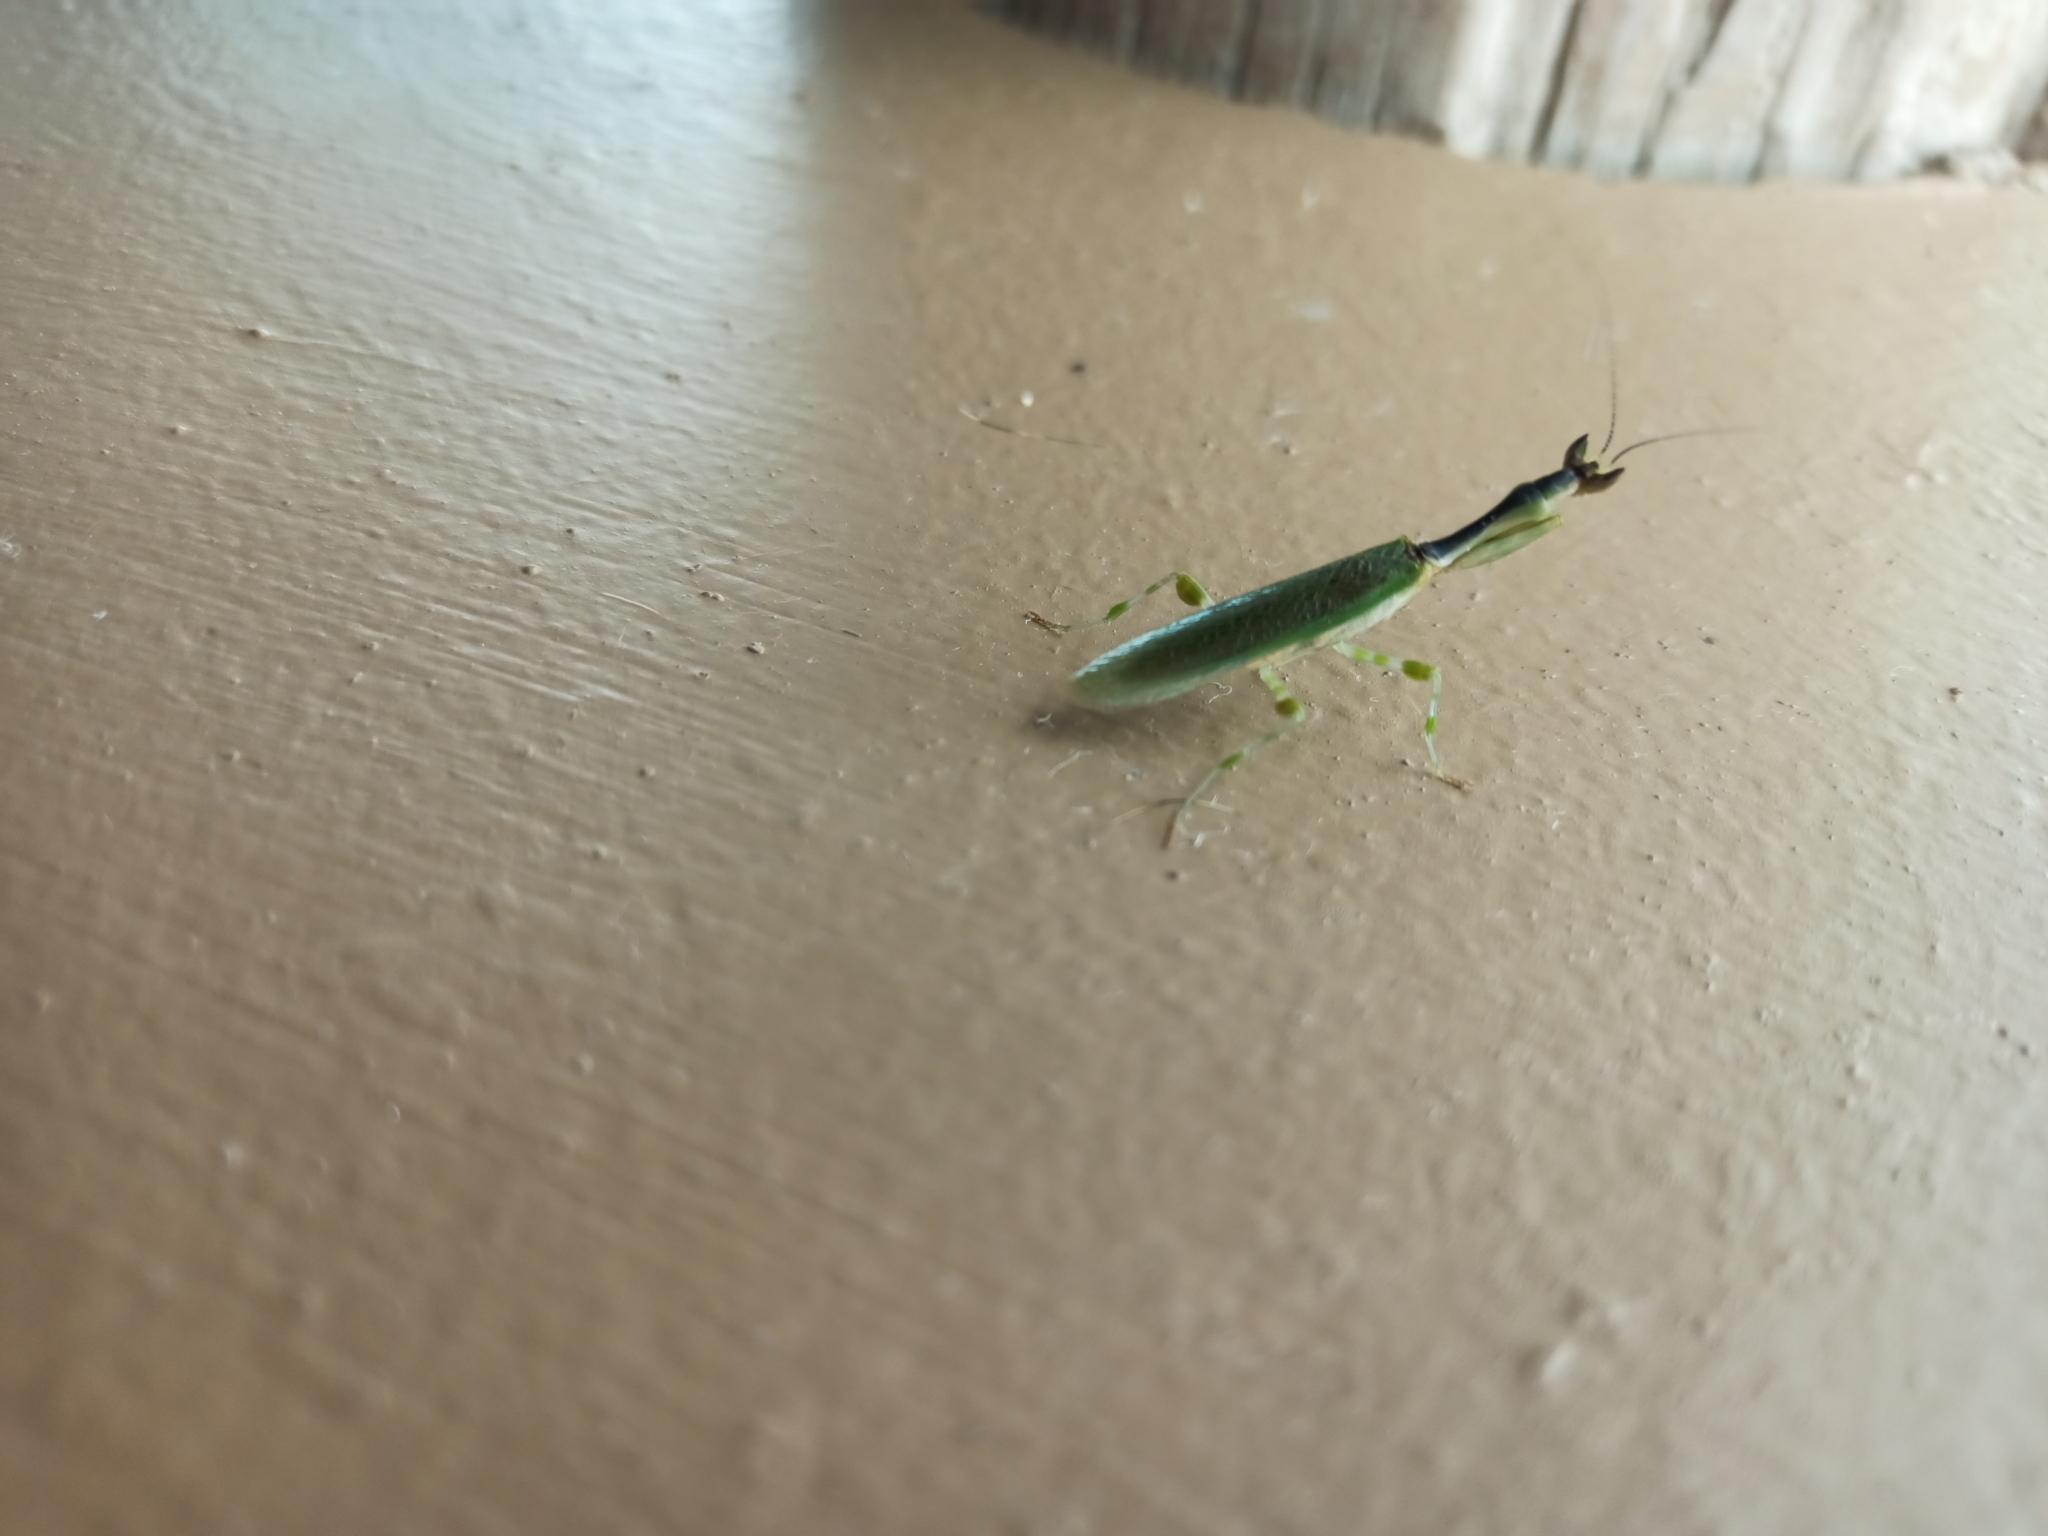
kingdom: Animalia
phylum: Arthropoda
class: Insecta
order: Mantodea
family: Galinthiadidae
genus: Galinthias
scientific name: Galinthias amoena
